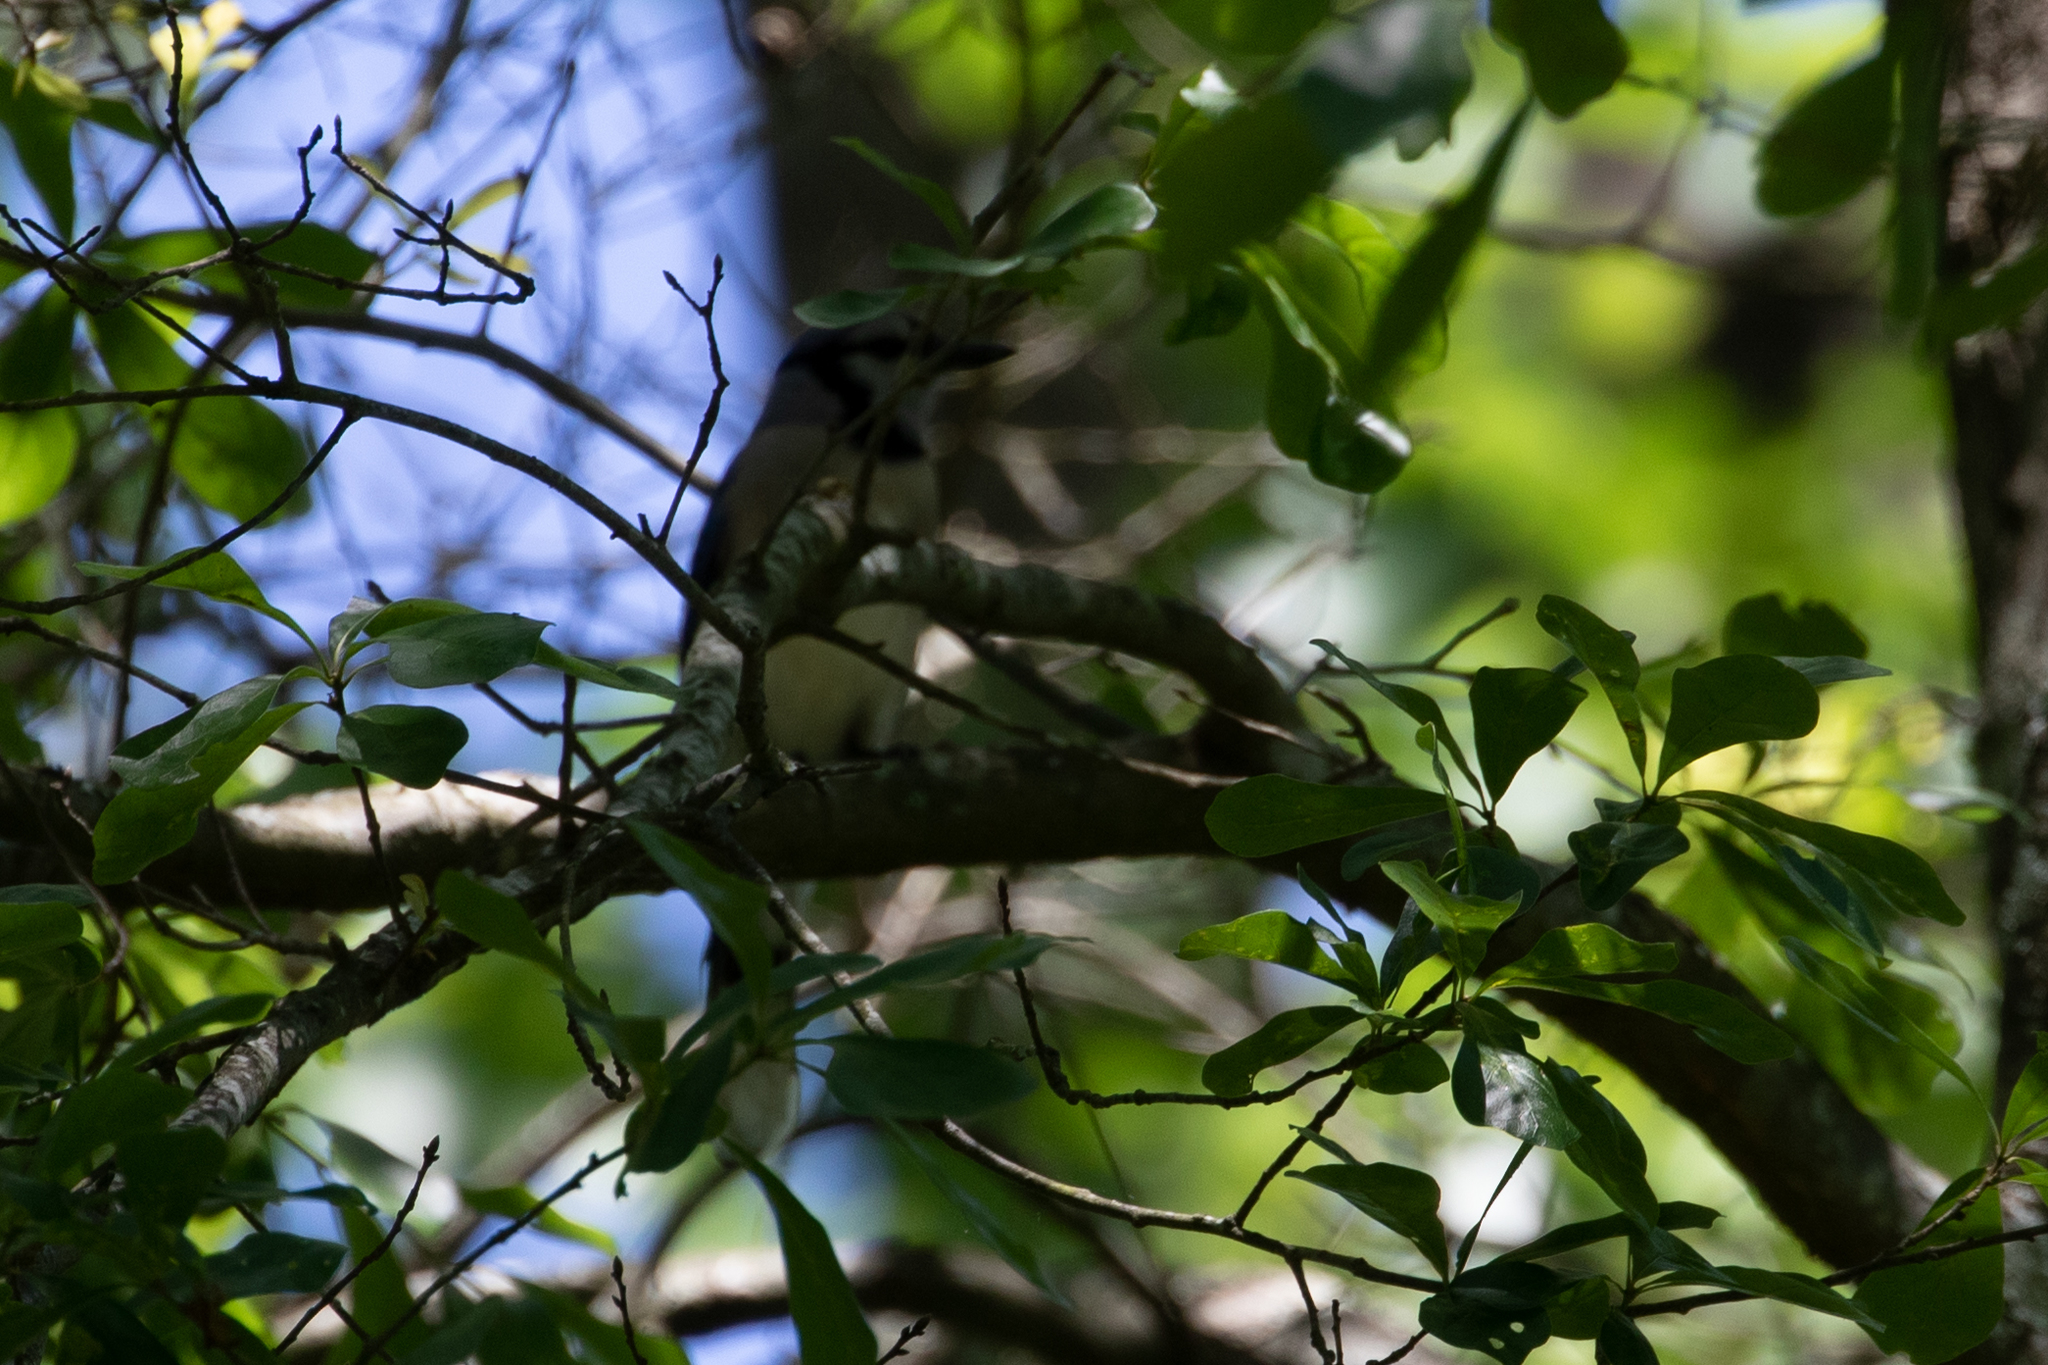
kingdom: Animalia
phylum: Chordata
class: Aves
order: Passeriformes
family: Corvidae
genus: Cyanocitta
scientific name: Cyanocitta cristata
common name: Blue jay
